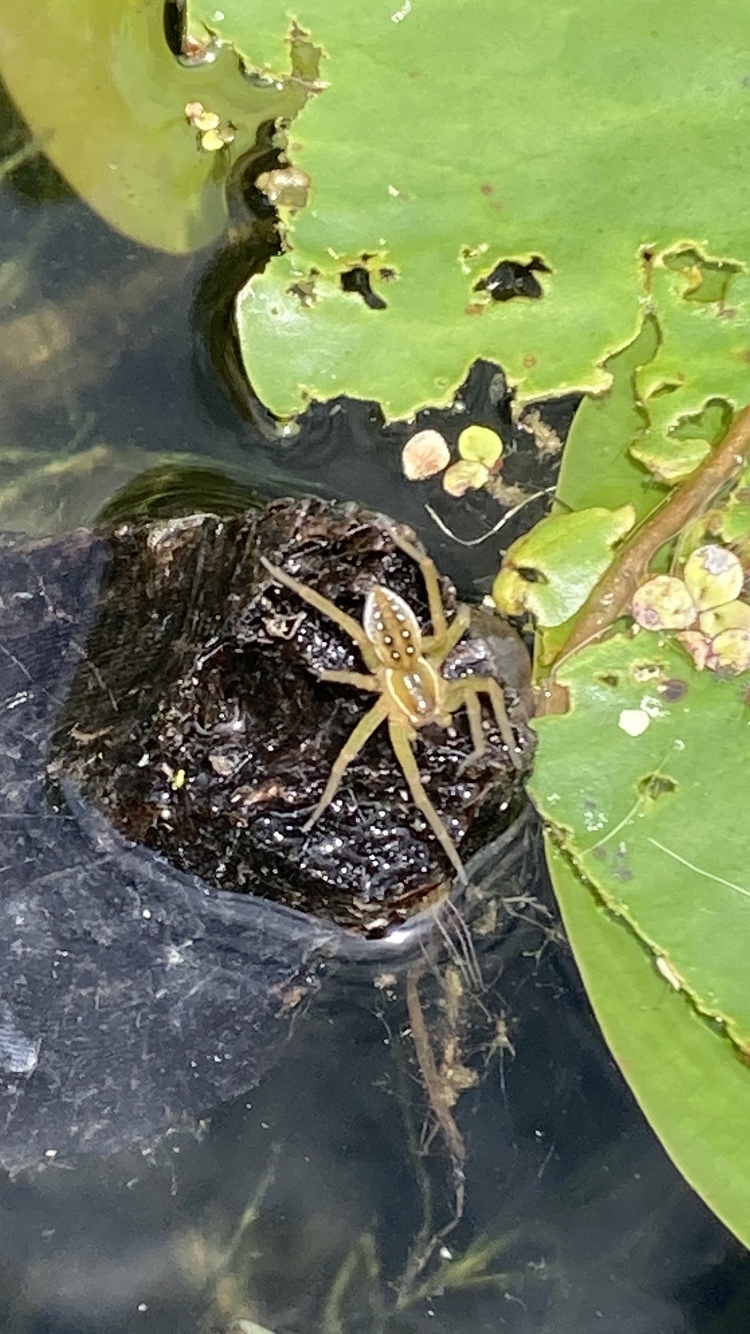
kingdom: Animalia
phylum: Arthropoda
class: Arachnida
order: Araneae
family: Pisauridae
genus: Dolomedes
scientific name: Dolomedes triton
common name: Six-spotted fishing spider
